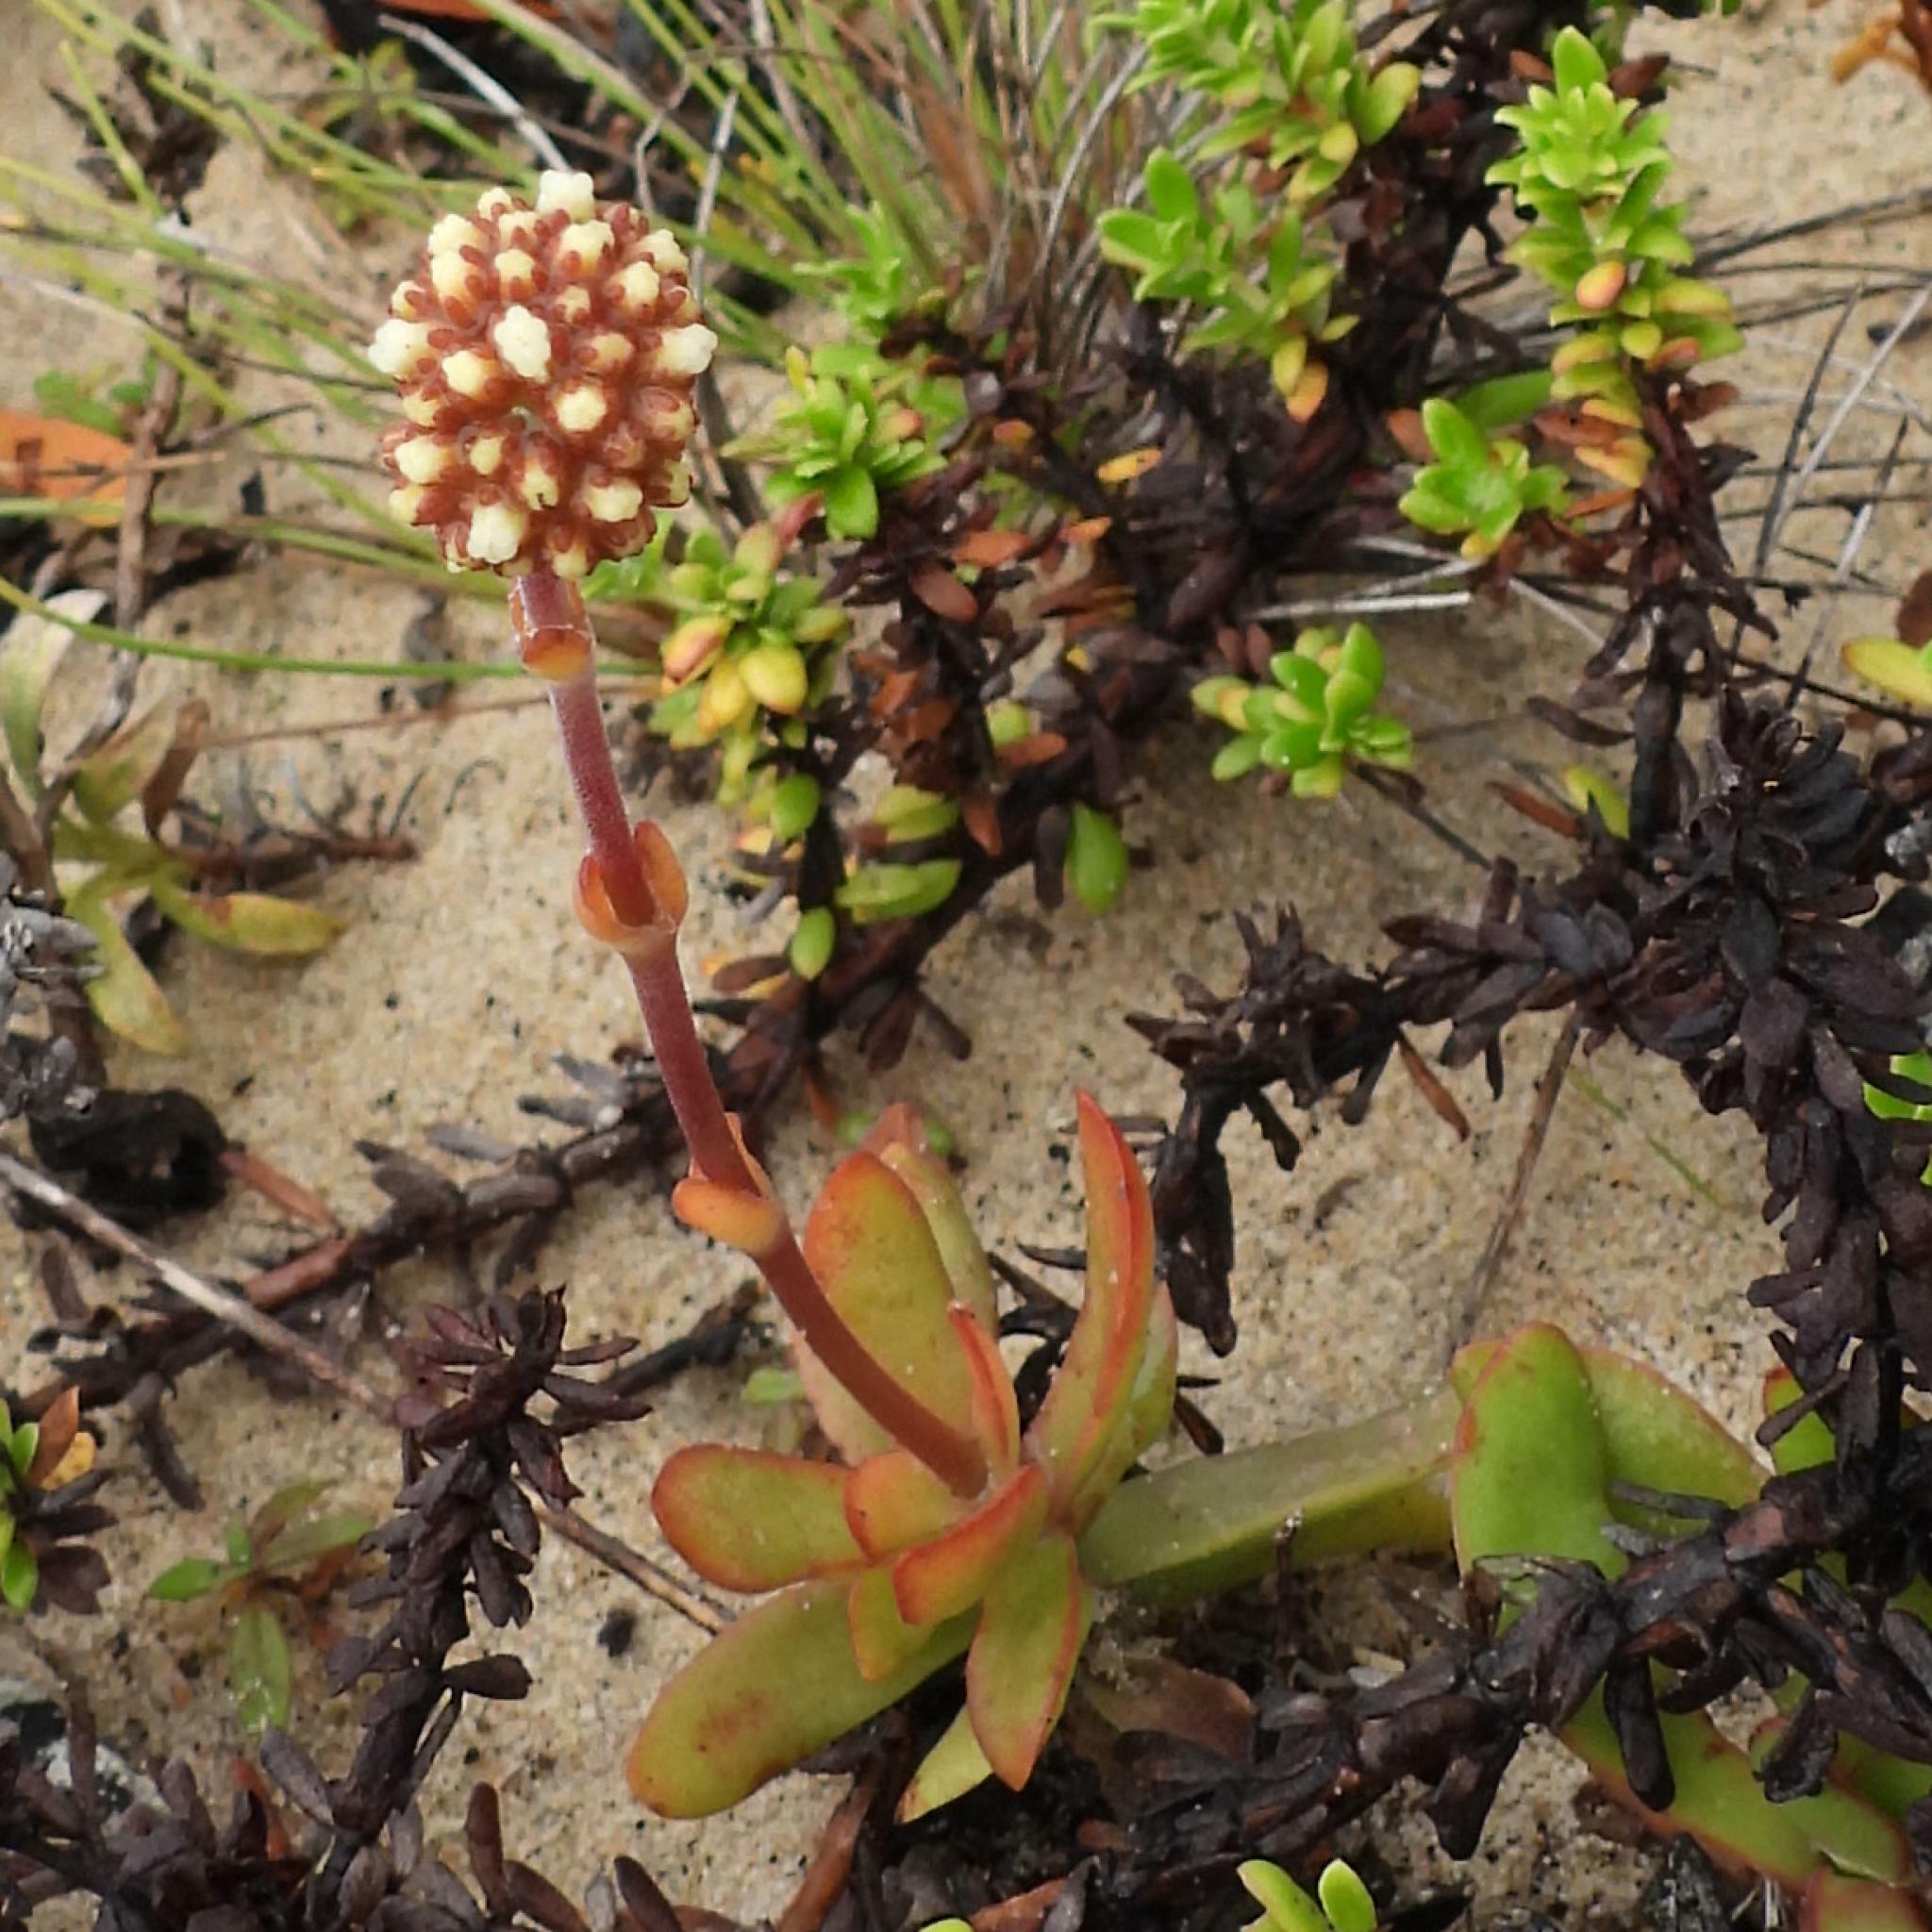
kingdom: Plantae
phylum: Tracheophyta
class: Magnoliopsida
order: Saxifragales
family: Crassulaceae
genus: Crassula
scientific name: Crassula pubescens
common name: Jersey pigmyweed
